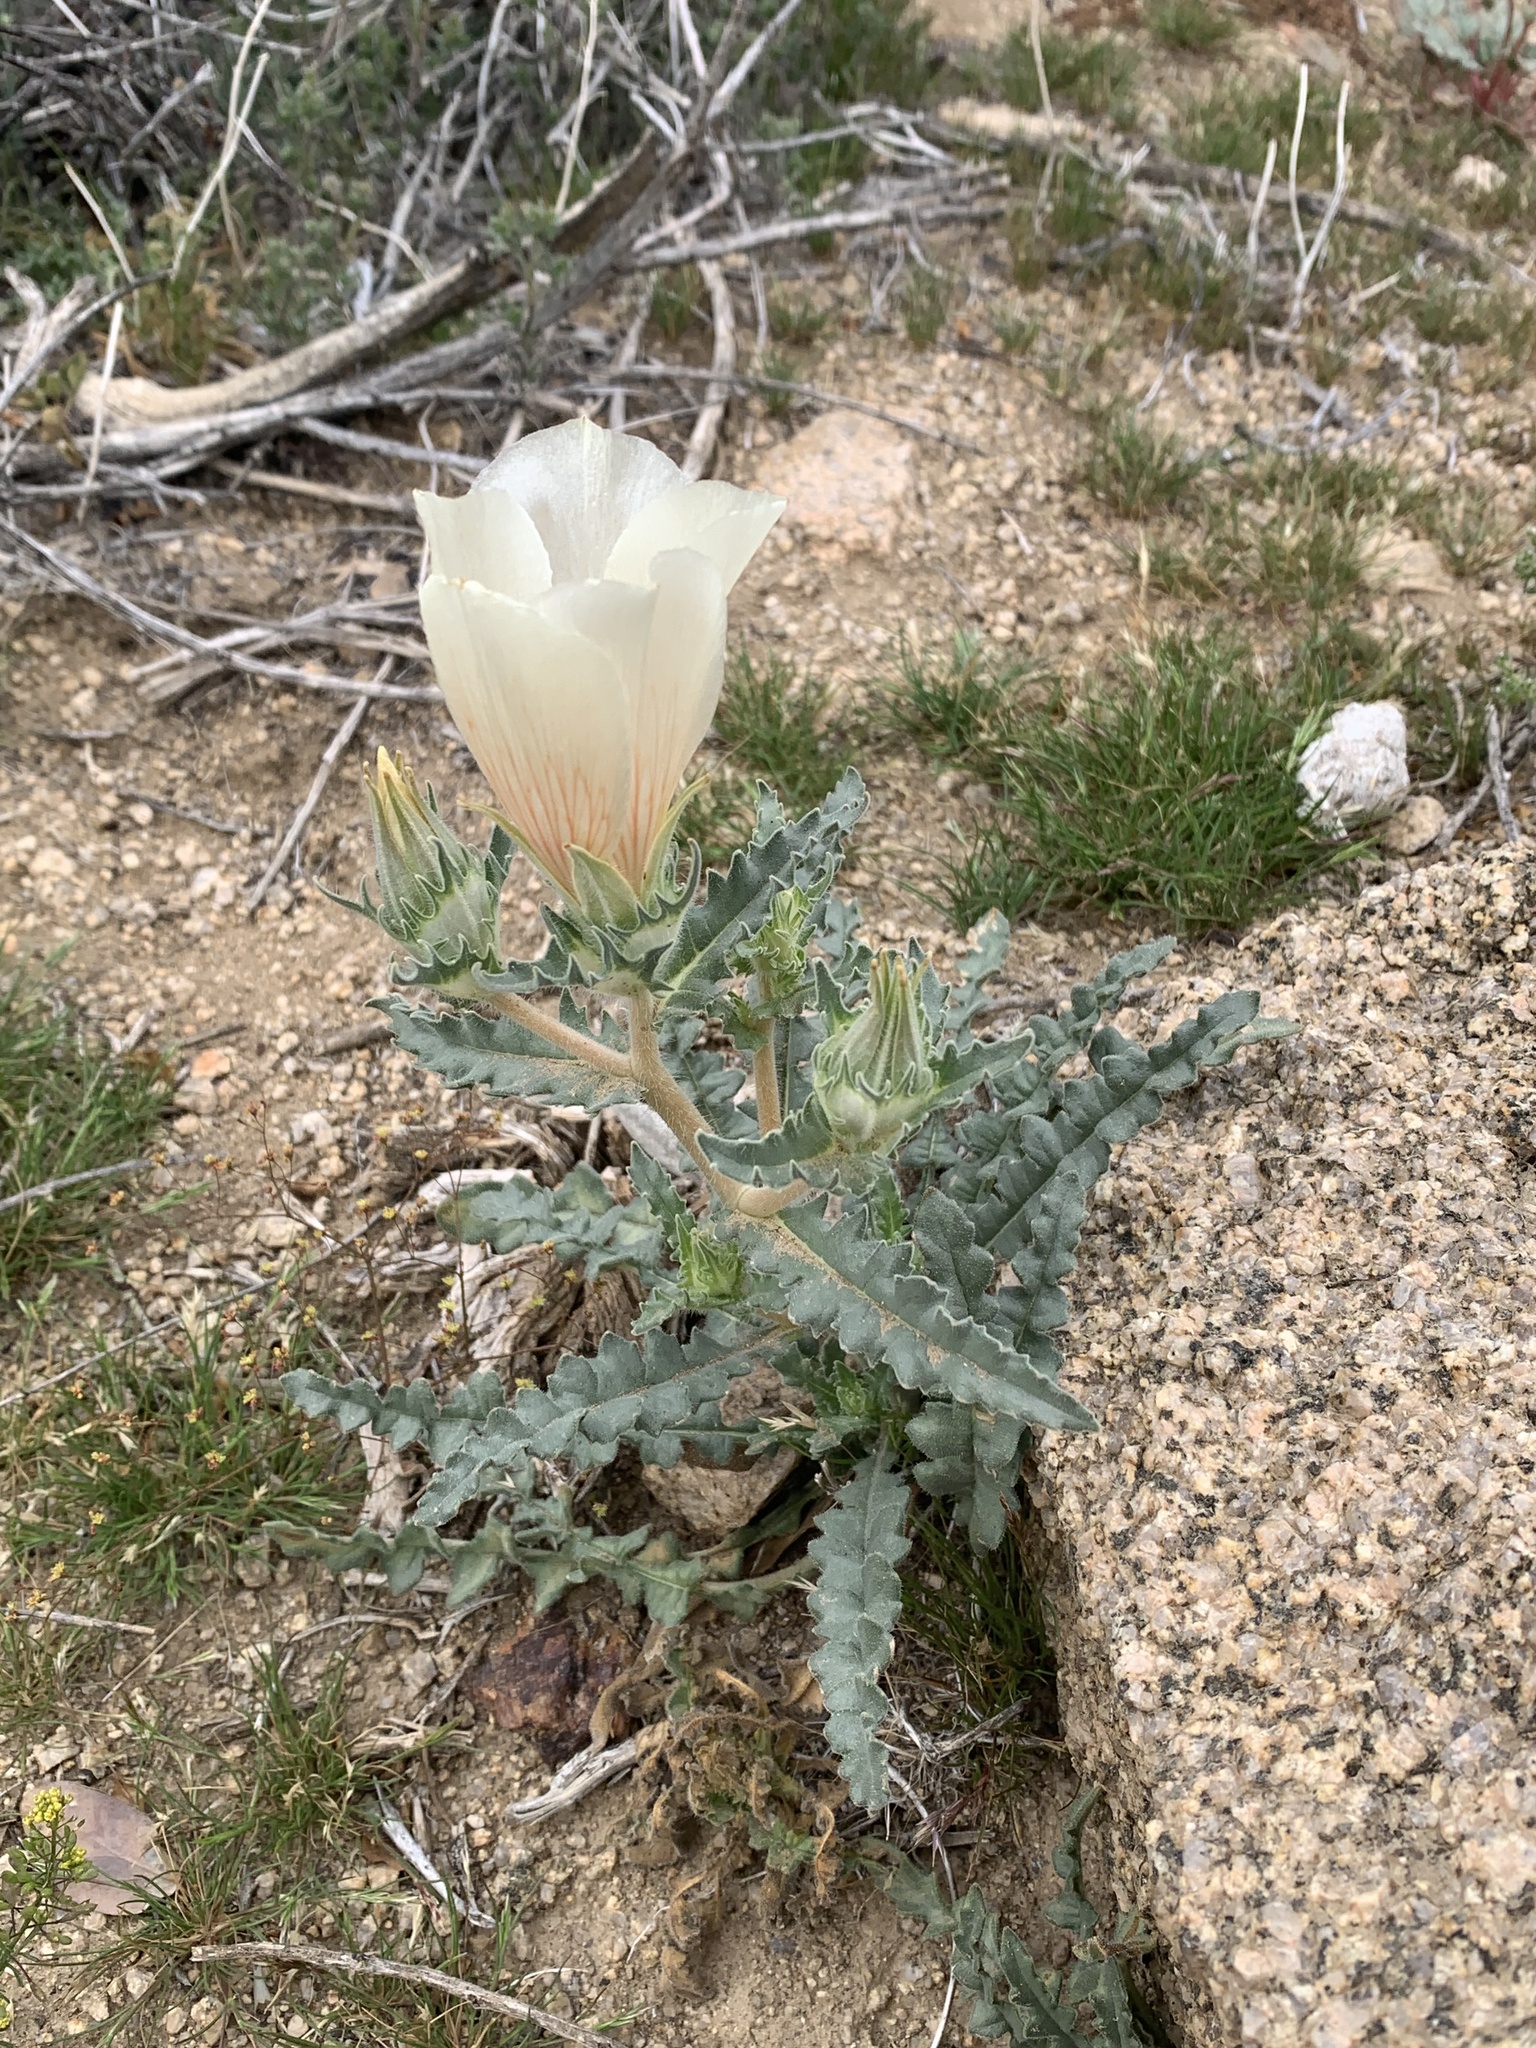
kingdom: Plantae
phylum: Tracheophyta
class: Magnoliopsida
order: Cornales
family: Loasaceae
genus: Mentzelia
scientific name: Mentzelia involucrata
